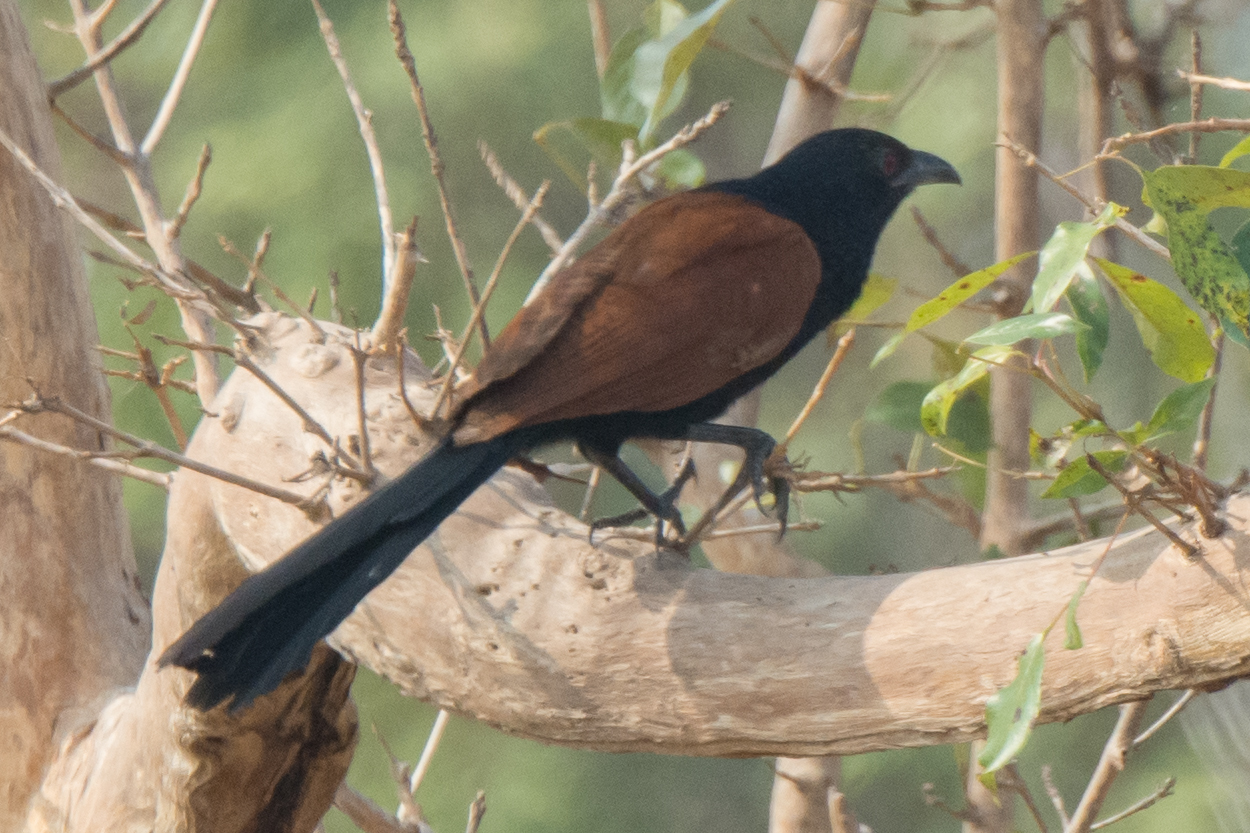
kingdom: Animalia
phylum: Chordata
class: Aves
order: Cuculiformes
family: Cuculidae
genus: Centropus
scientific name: Centropus sinensis
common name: Greater coucal
